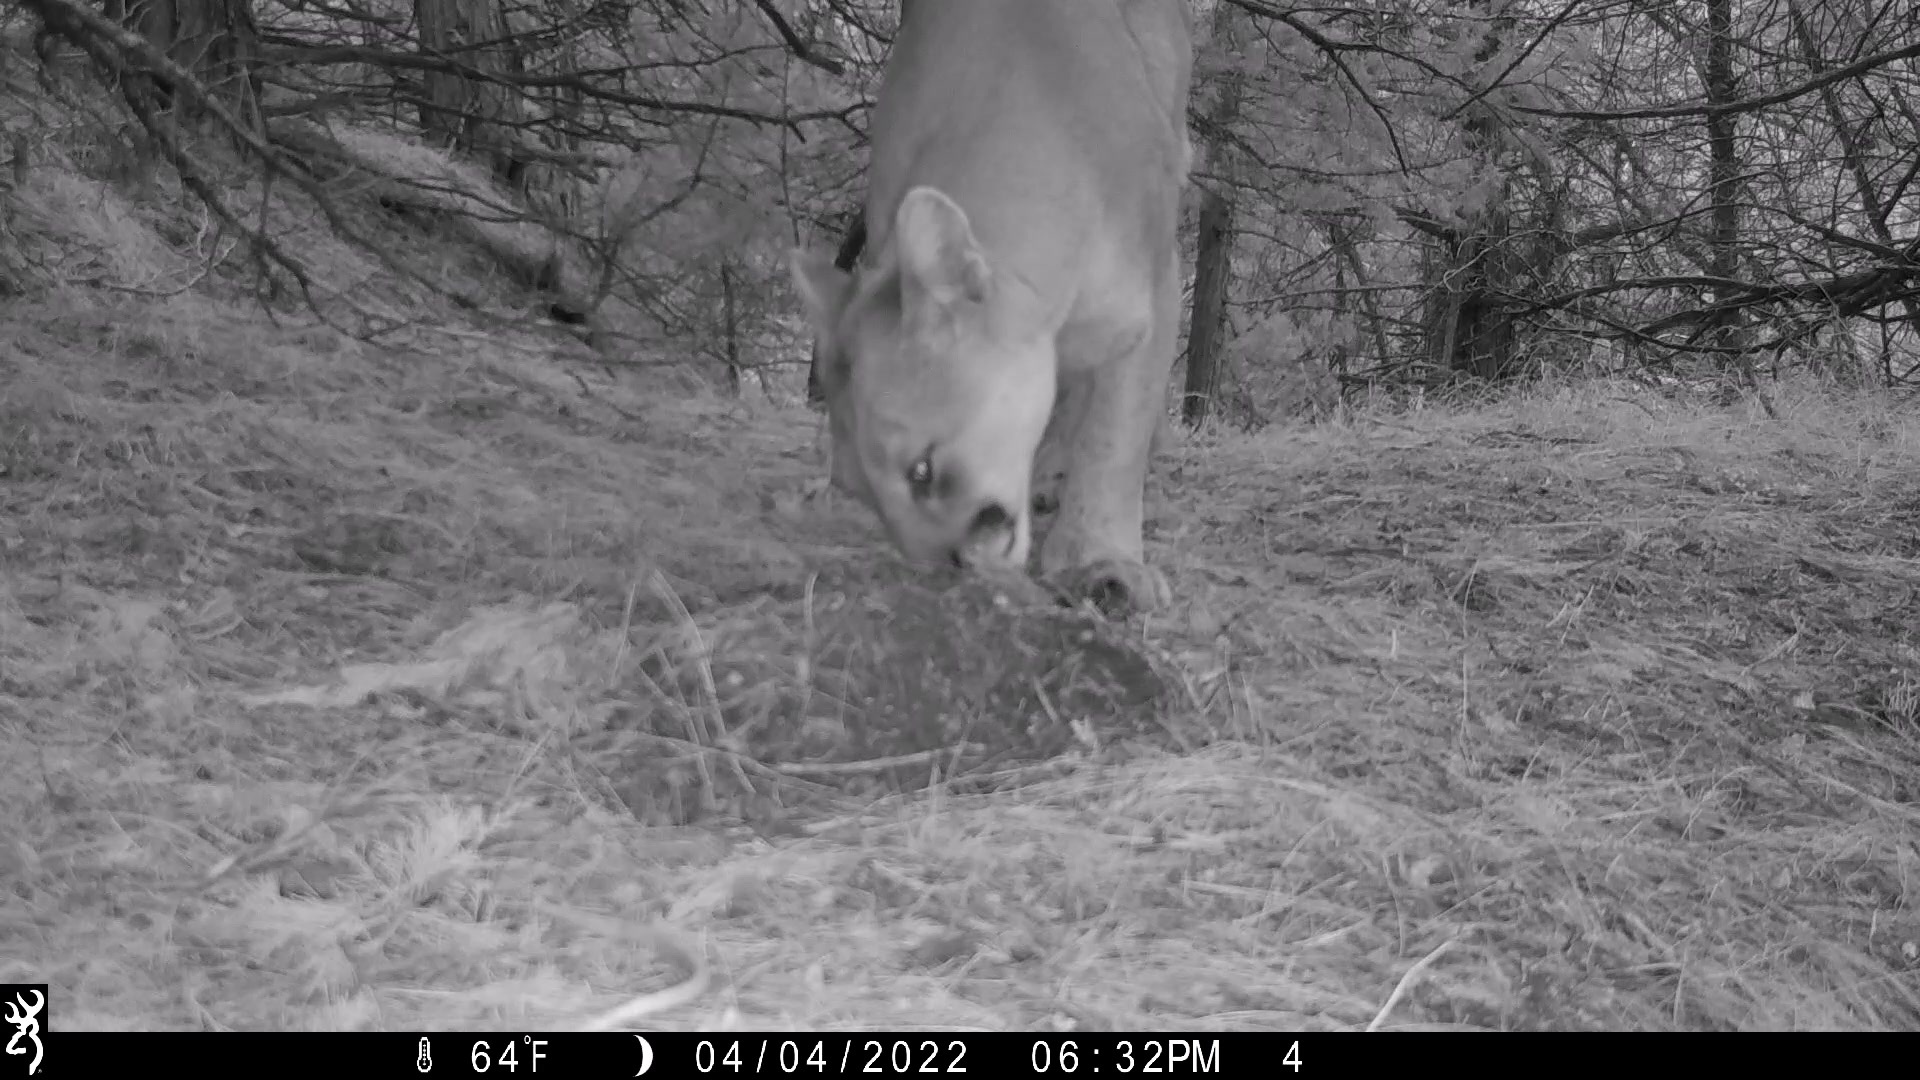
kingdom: Animalia
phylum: Chordata
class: Mammalia
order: Carnivora
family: Felidae
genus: Puma
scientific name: Puma concolor
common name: Puma
